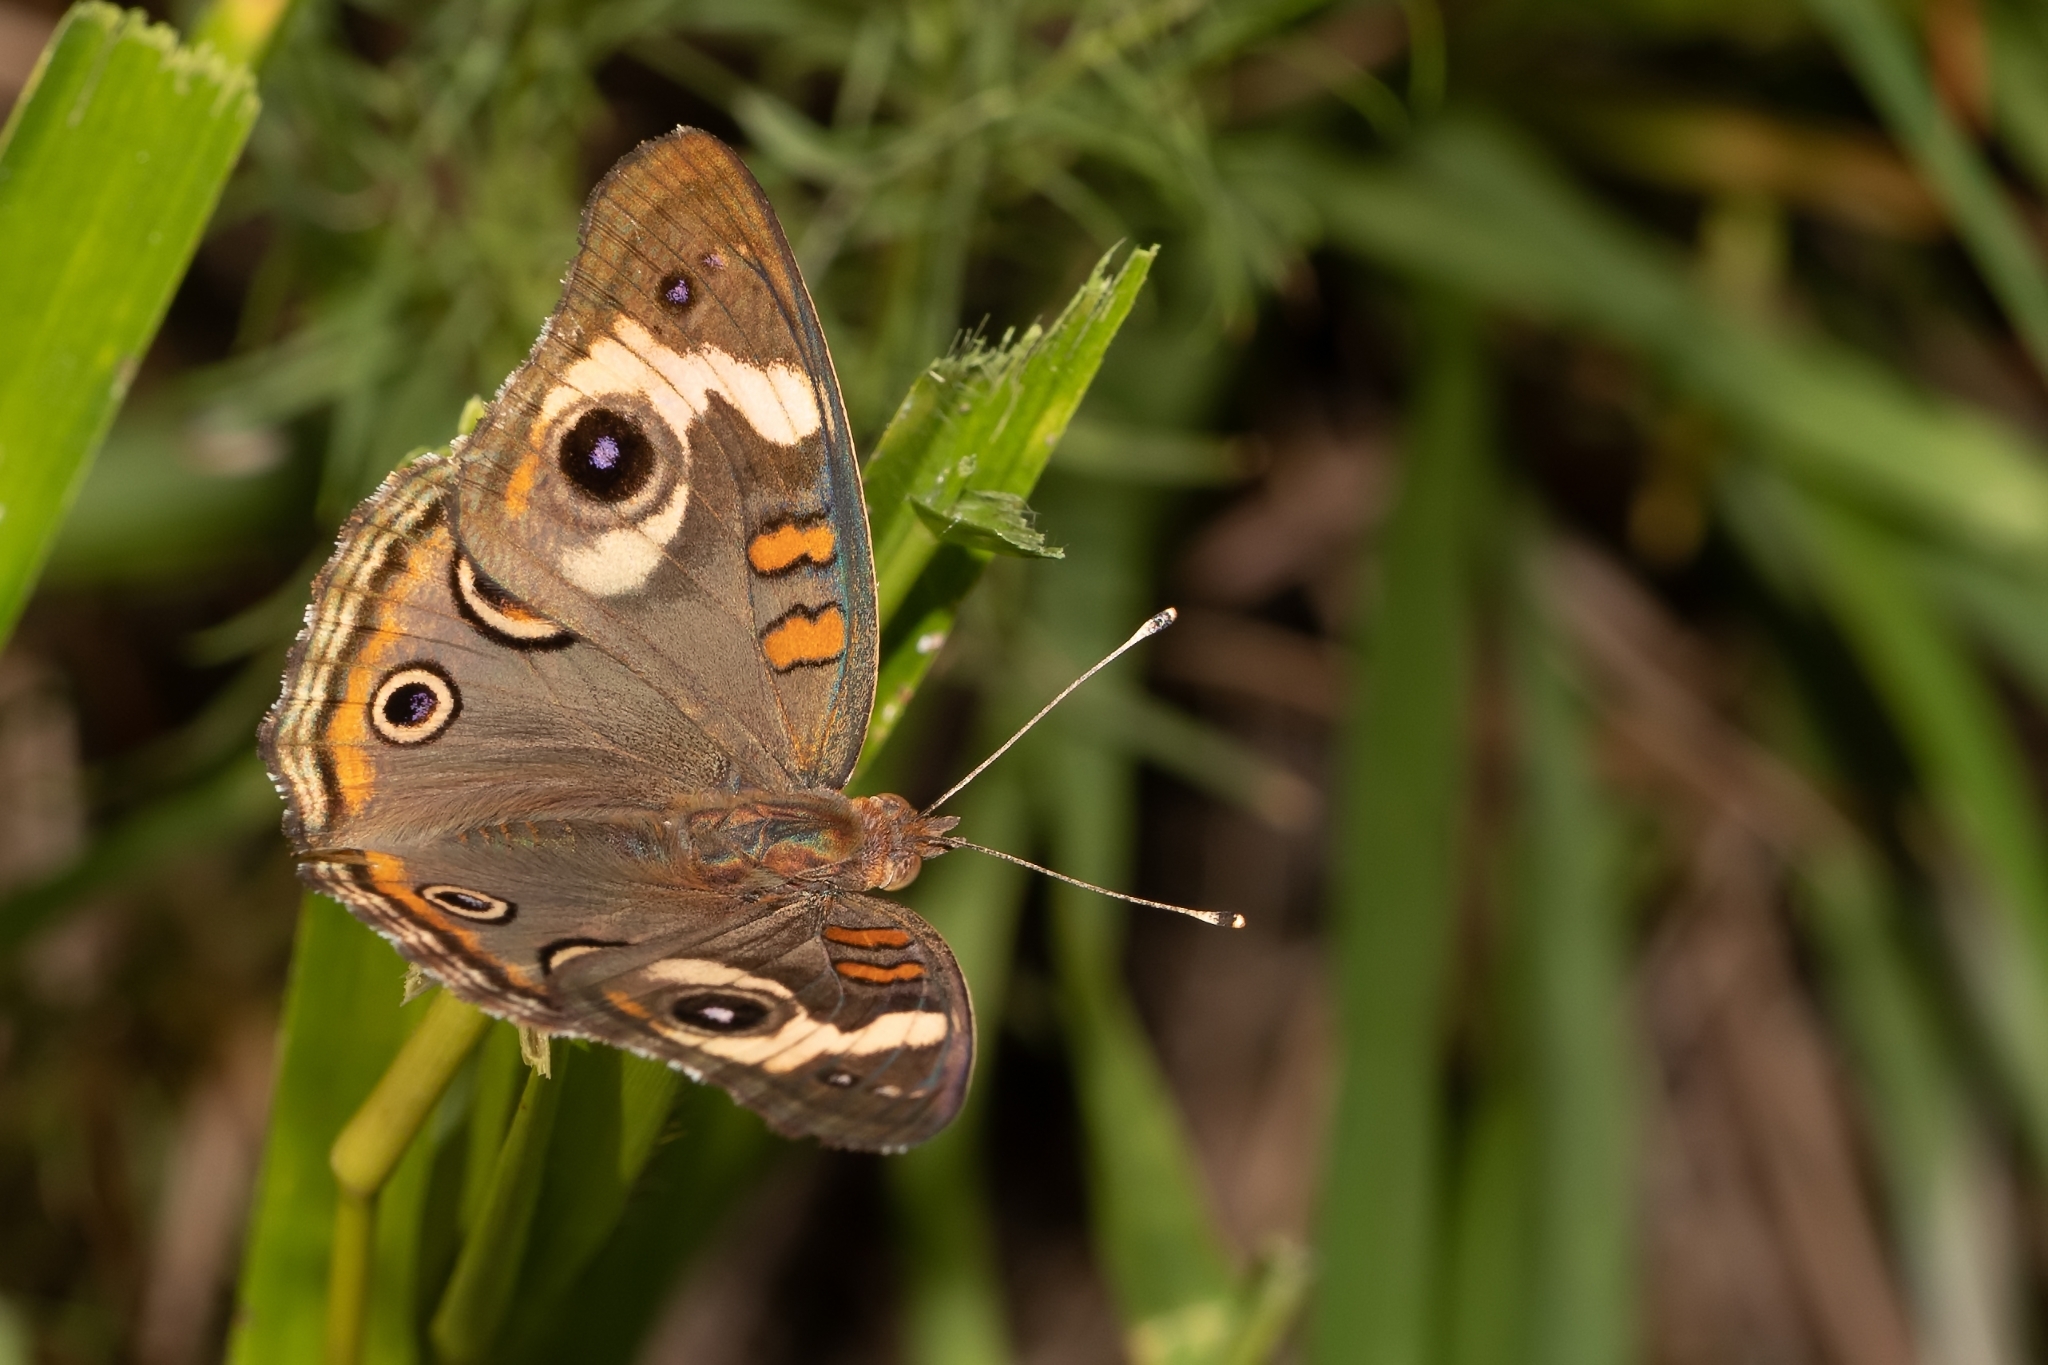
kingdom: Animalia
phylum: Arthropoda
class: Insecta
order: Lepidoptera
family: Nymphalidae
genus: Junonia
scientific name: Junonia coenia
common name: Common buckeye
